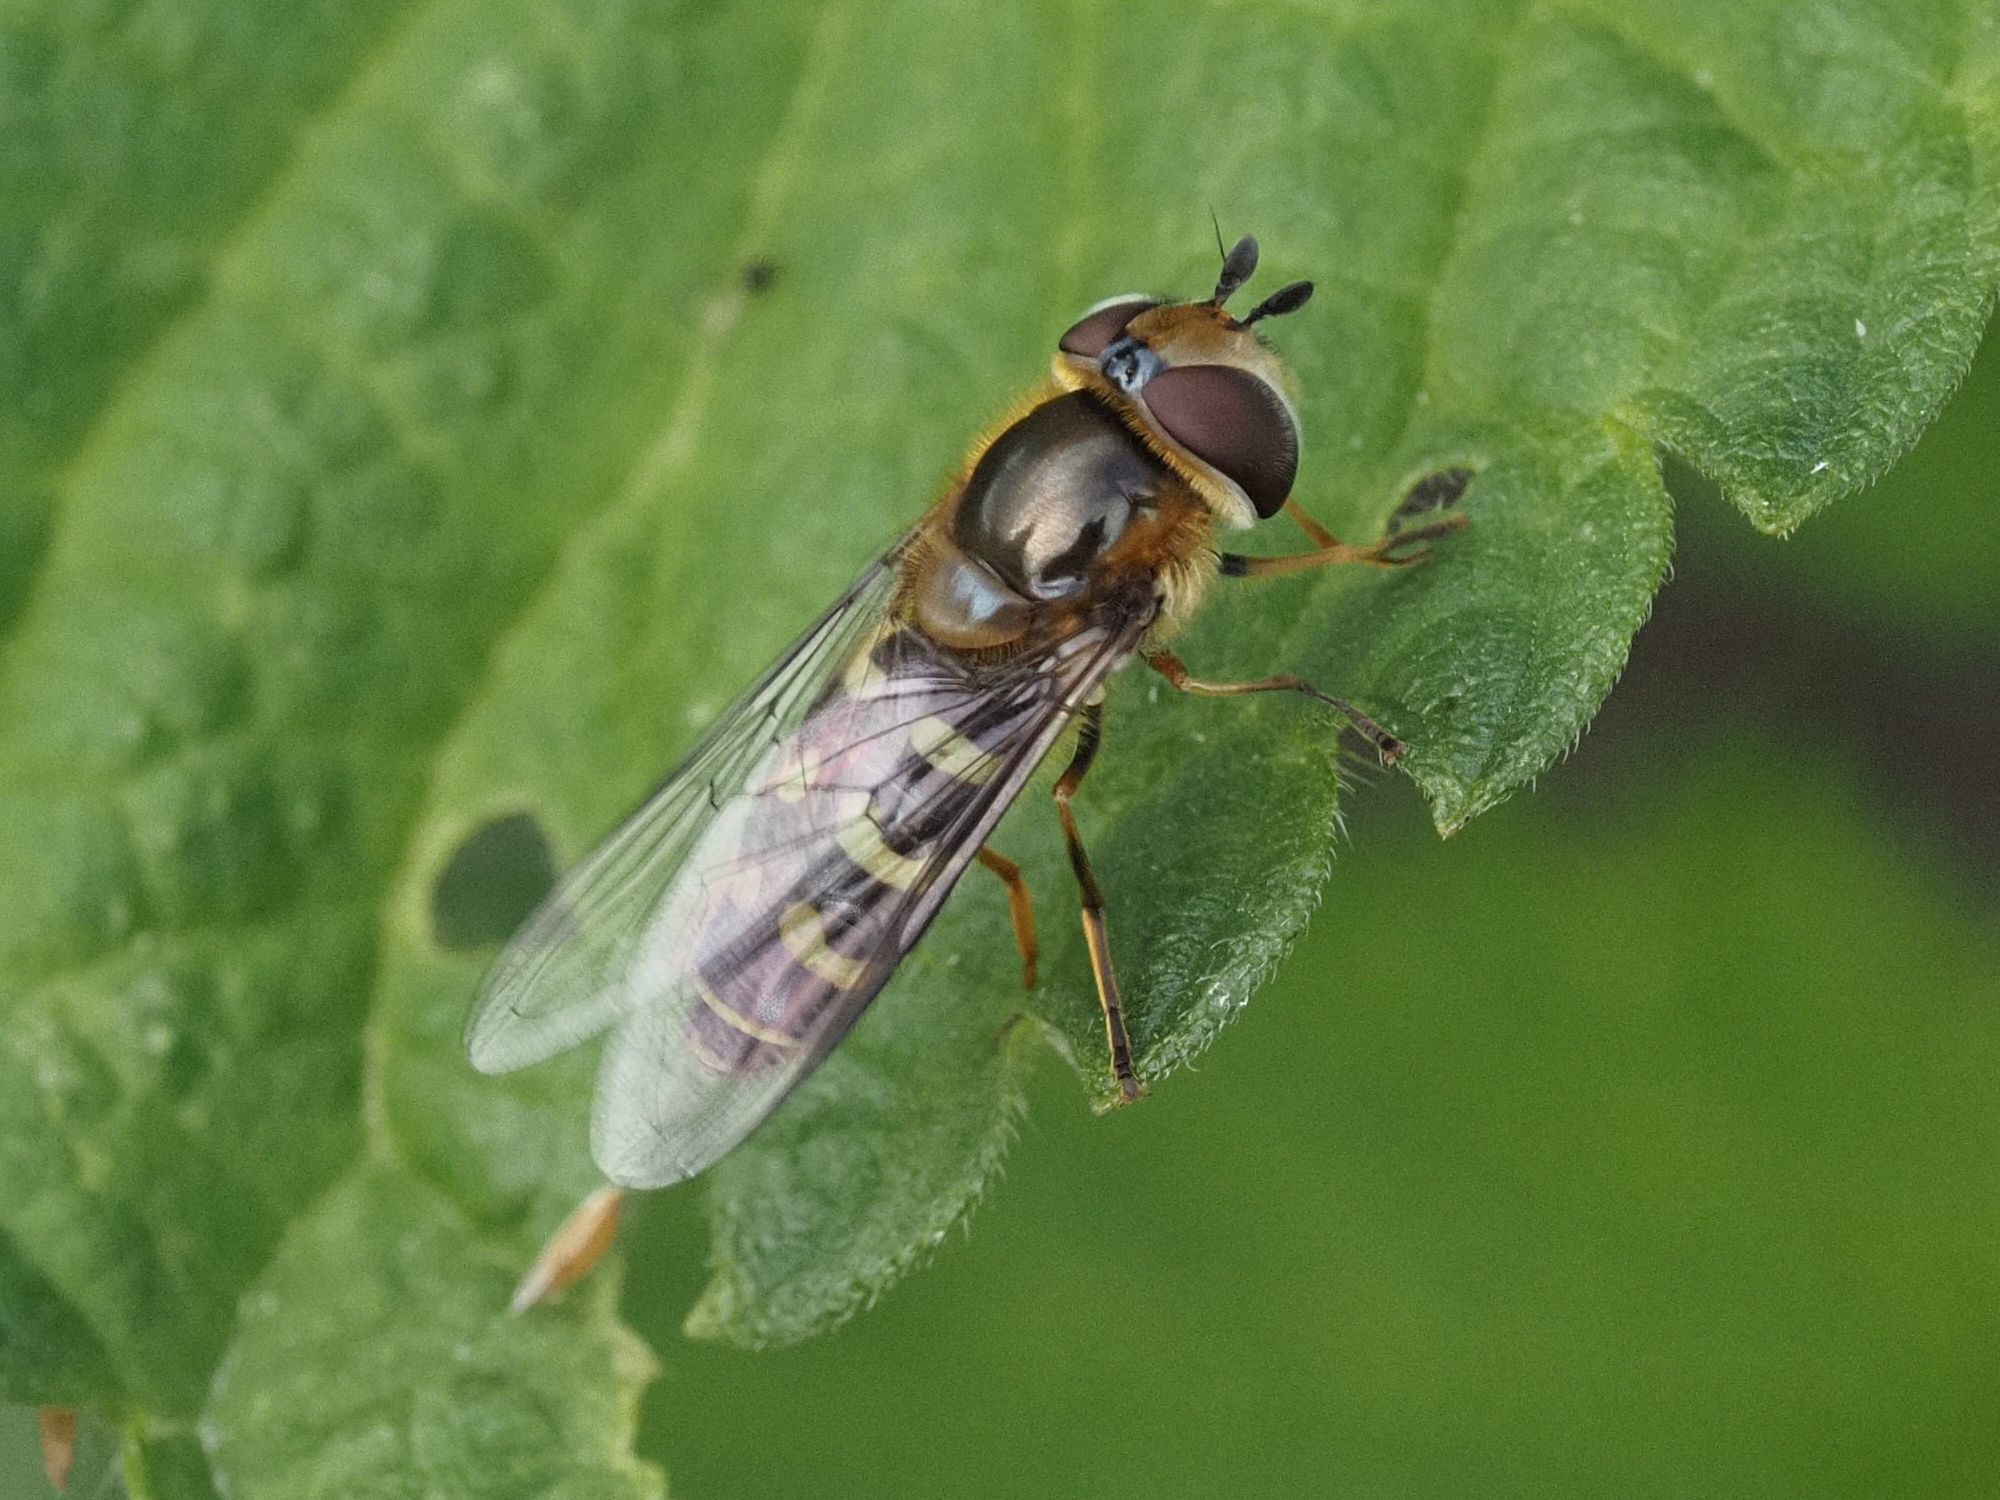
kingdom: Animalia
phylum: Arthropoda
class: Insecta
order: Diptera
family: Syrphidae
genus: Scaeva
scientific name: Scaeva selenitica
